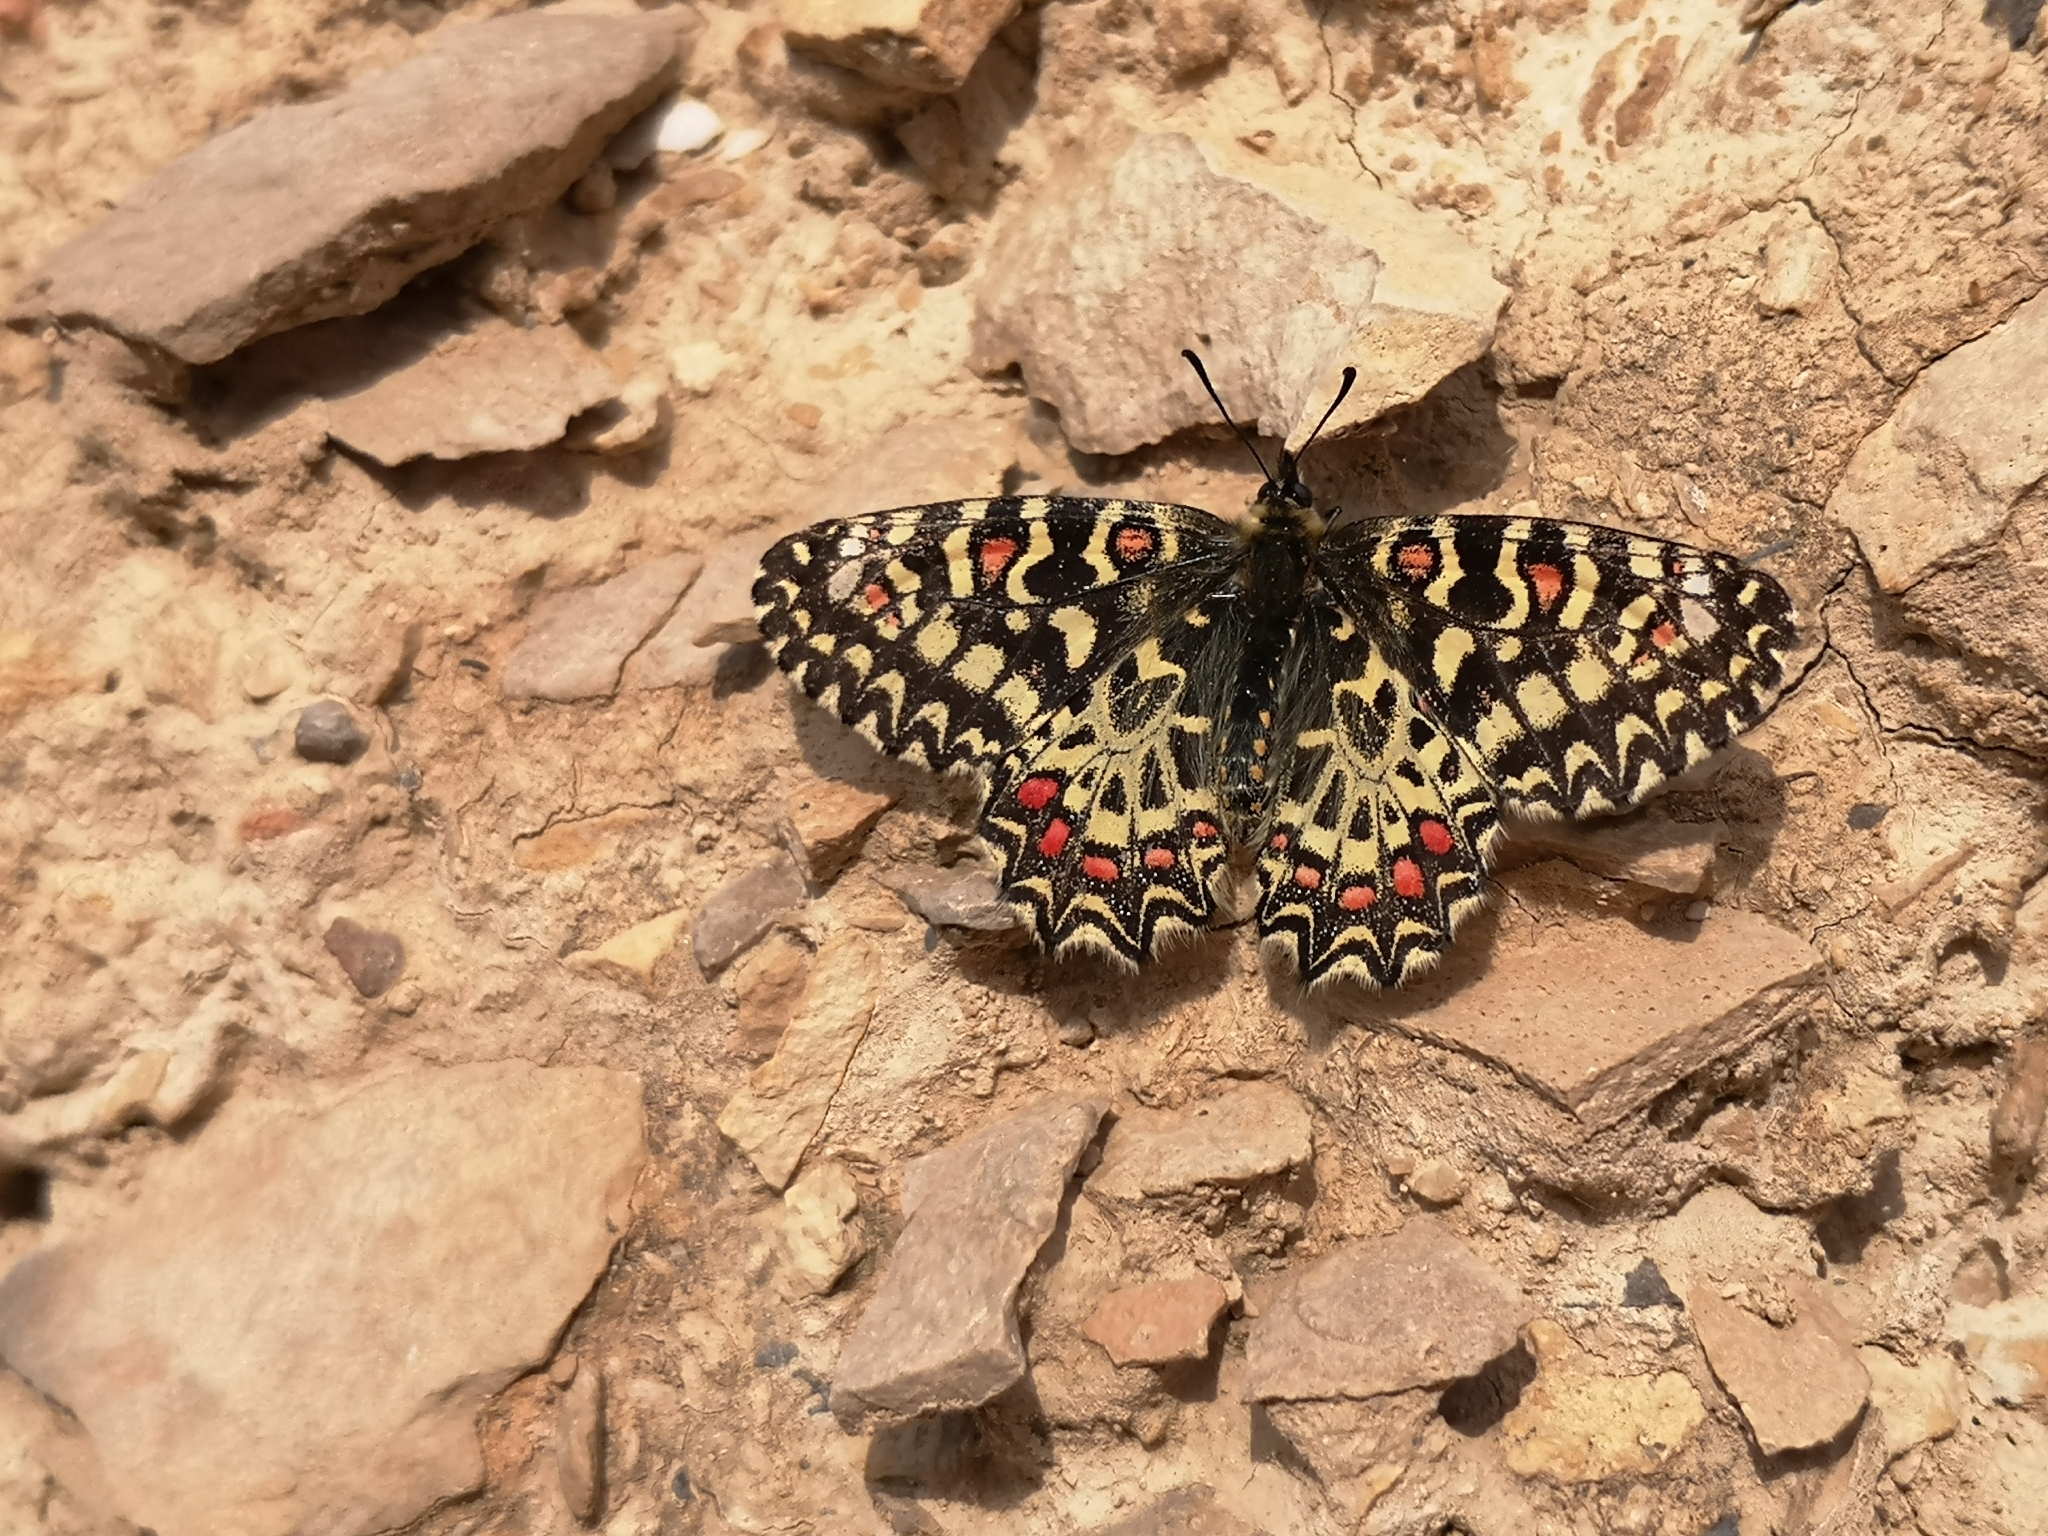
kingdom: Animalia
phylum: Arthropoda
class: Insecta
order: Lepidoptera
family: Papilionidae
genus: Zerynthia
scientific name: Zerynthia rumina
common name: Spanish festoon
